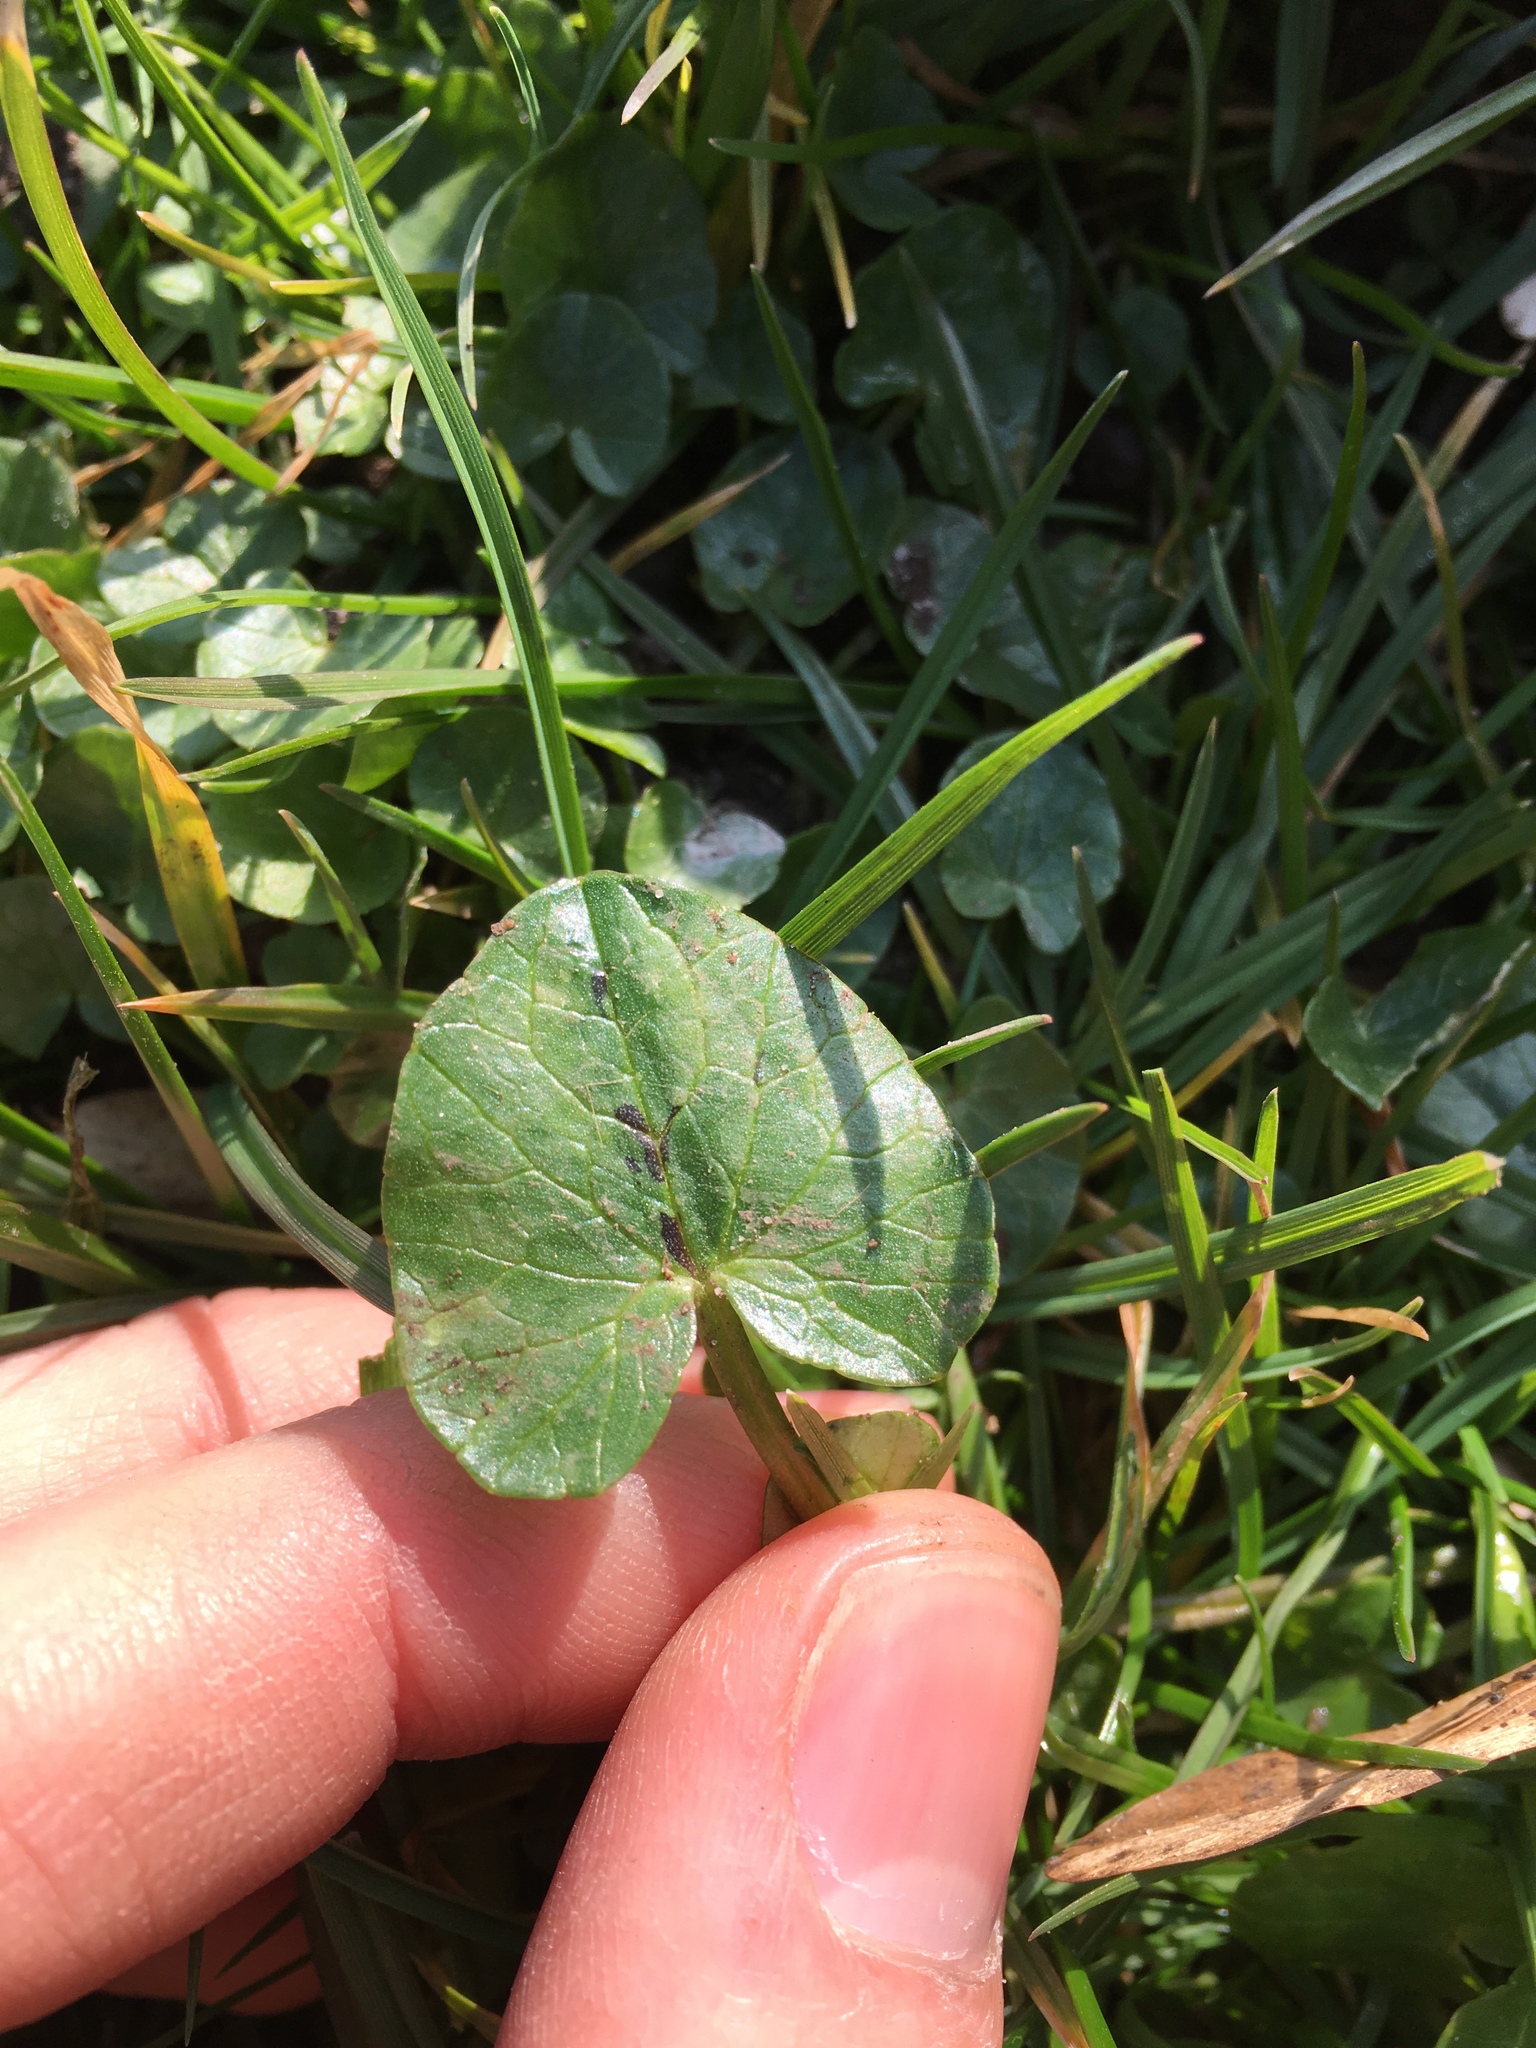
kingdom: Plantae
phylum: Tracheophyta
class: Magnoliopsida
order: Ranunculales
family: Ranunculaceae
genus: Ficaria
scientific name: Ficaria verna
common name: Lesser celandine
